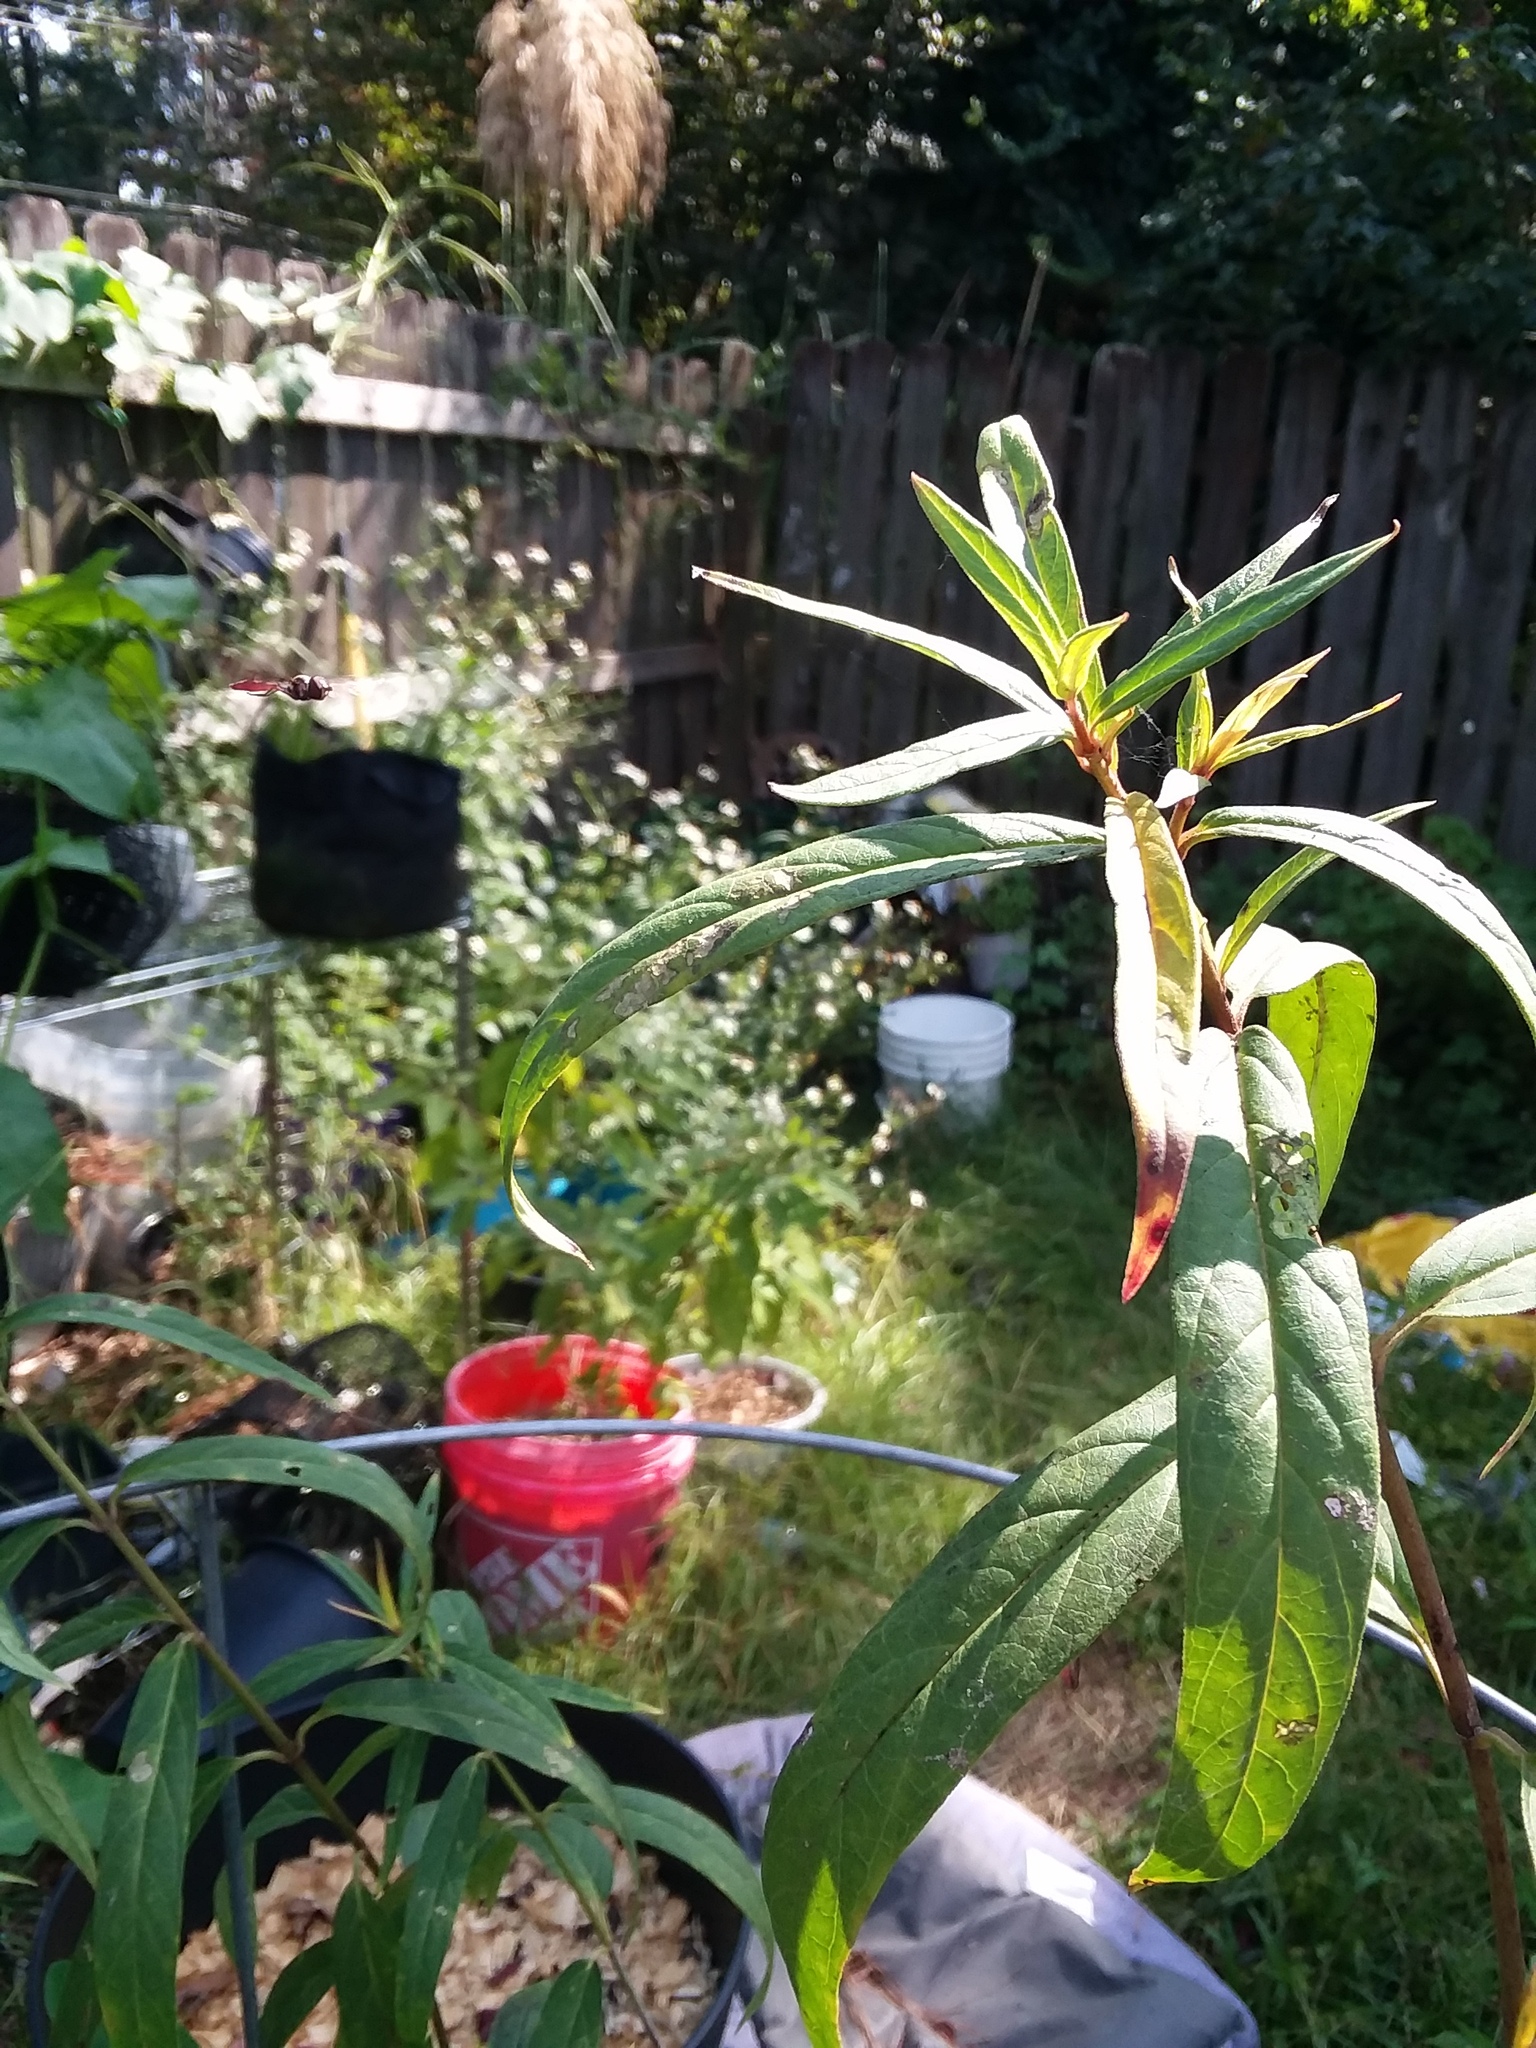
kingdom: Animalia
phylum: Arthropoda
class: Insecta
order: Diptera
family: Syrphidae
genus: Ocyptamus
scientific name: Ocyptamus fuscipennis
